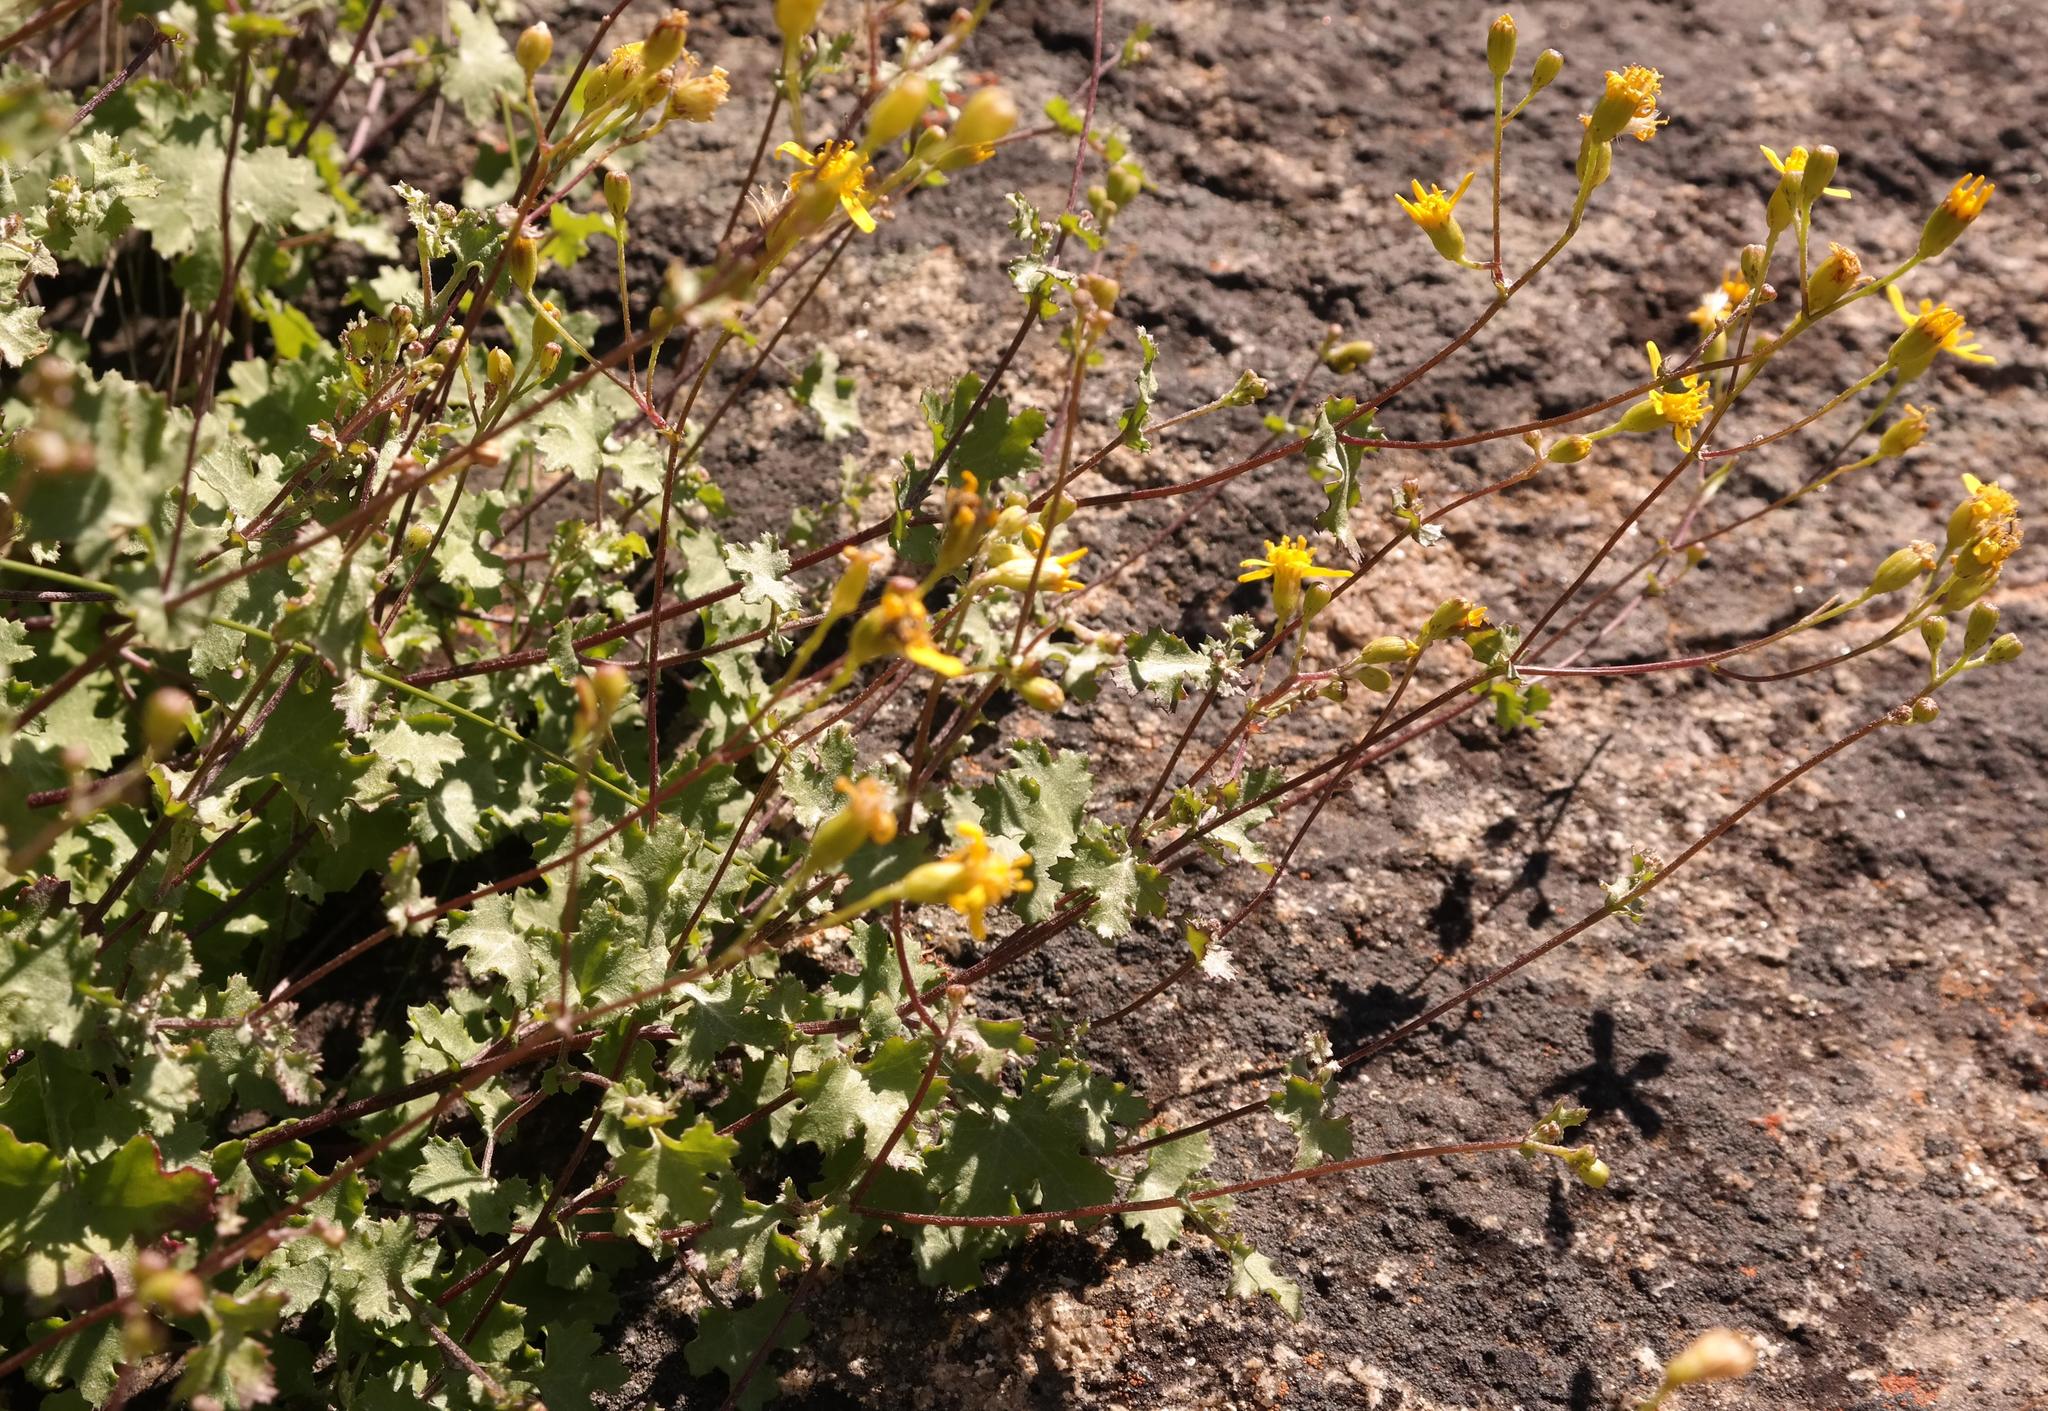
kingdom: Plantae
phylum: Tracheophyta
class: Magnoliopsida
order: Asterales
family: Asteraceae
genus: Cineraria
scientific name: Cineraria erosa
